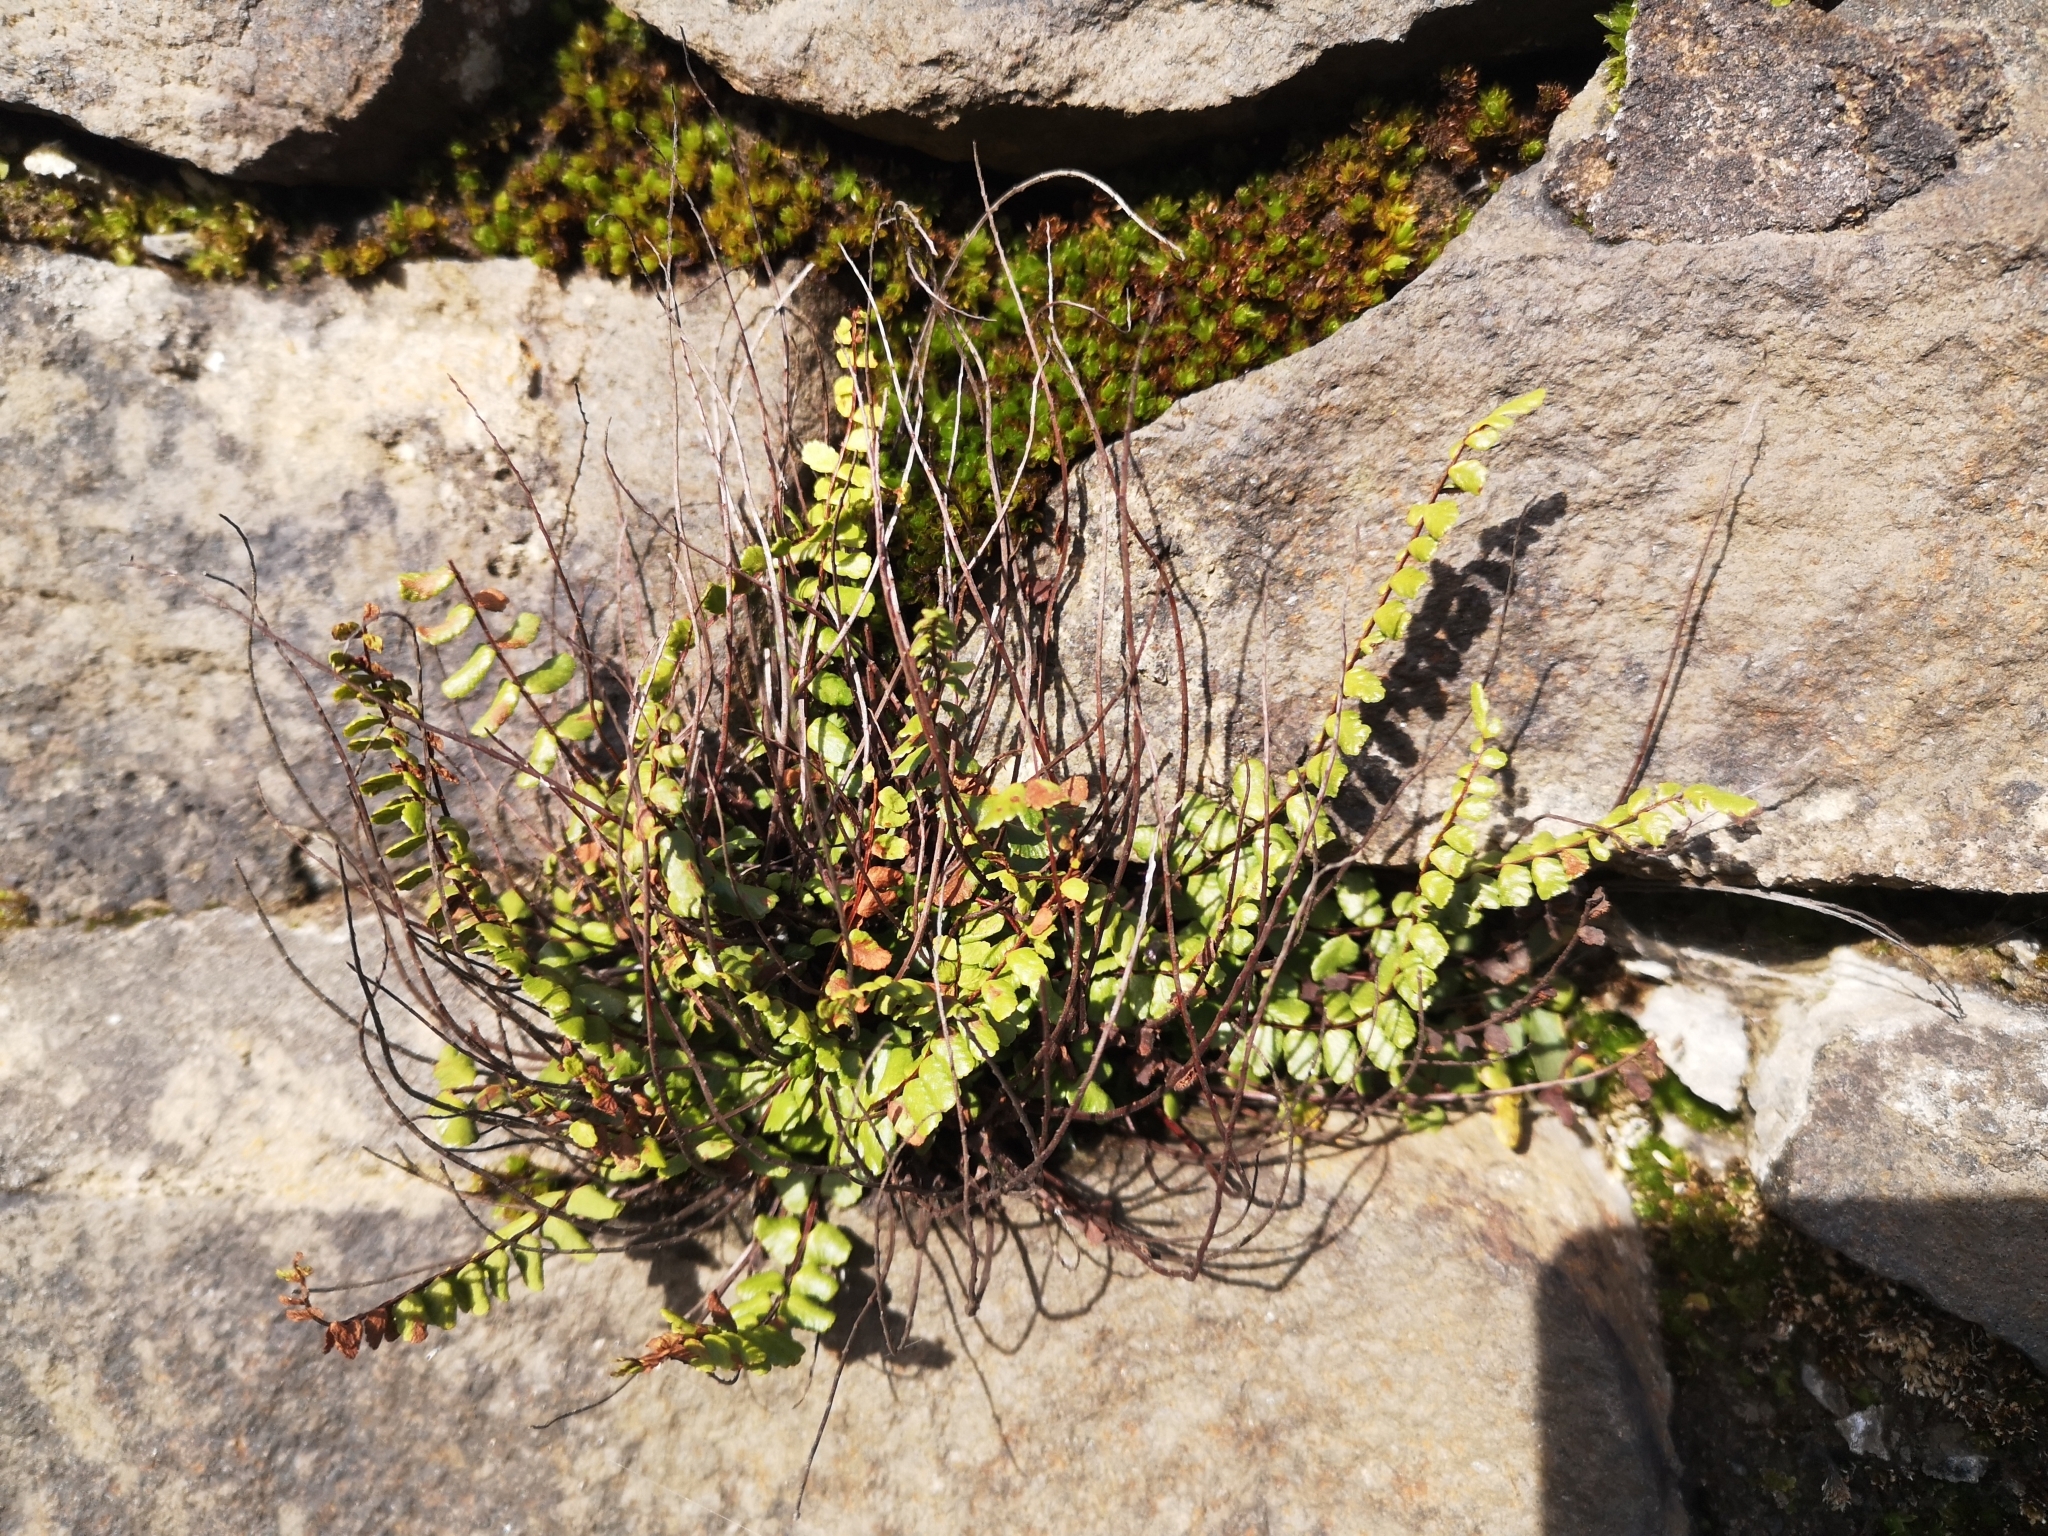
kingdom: Plantae
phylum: Tracheophyta
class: Polypodiopsida
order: Polypodiales
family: Aspleniaceae
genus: Asplenium
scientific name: Asplenium trichomanes
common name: Maidenhair spleenwort
